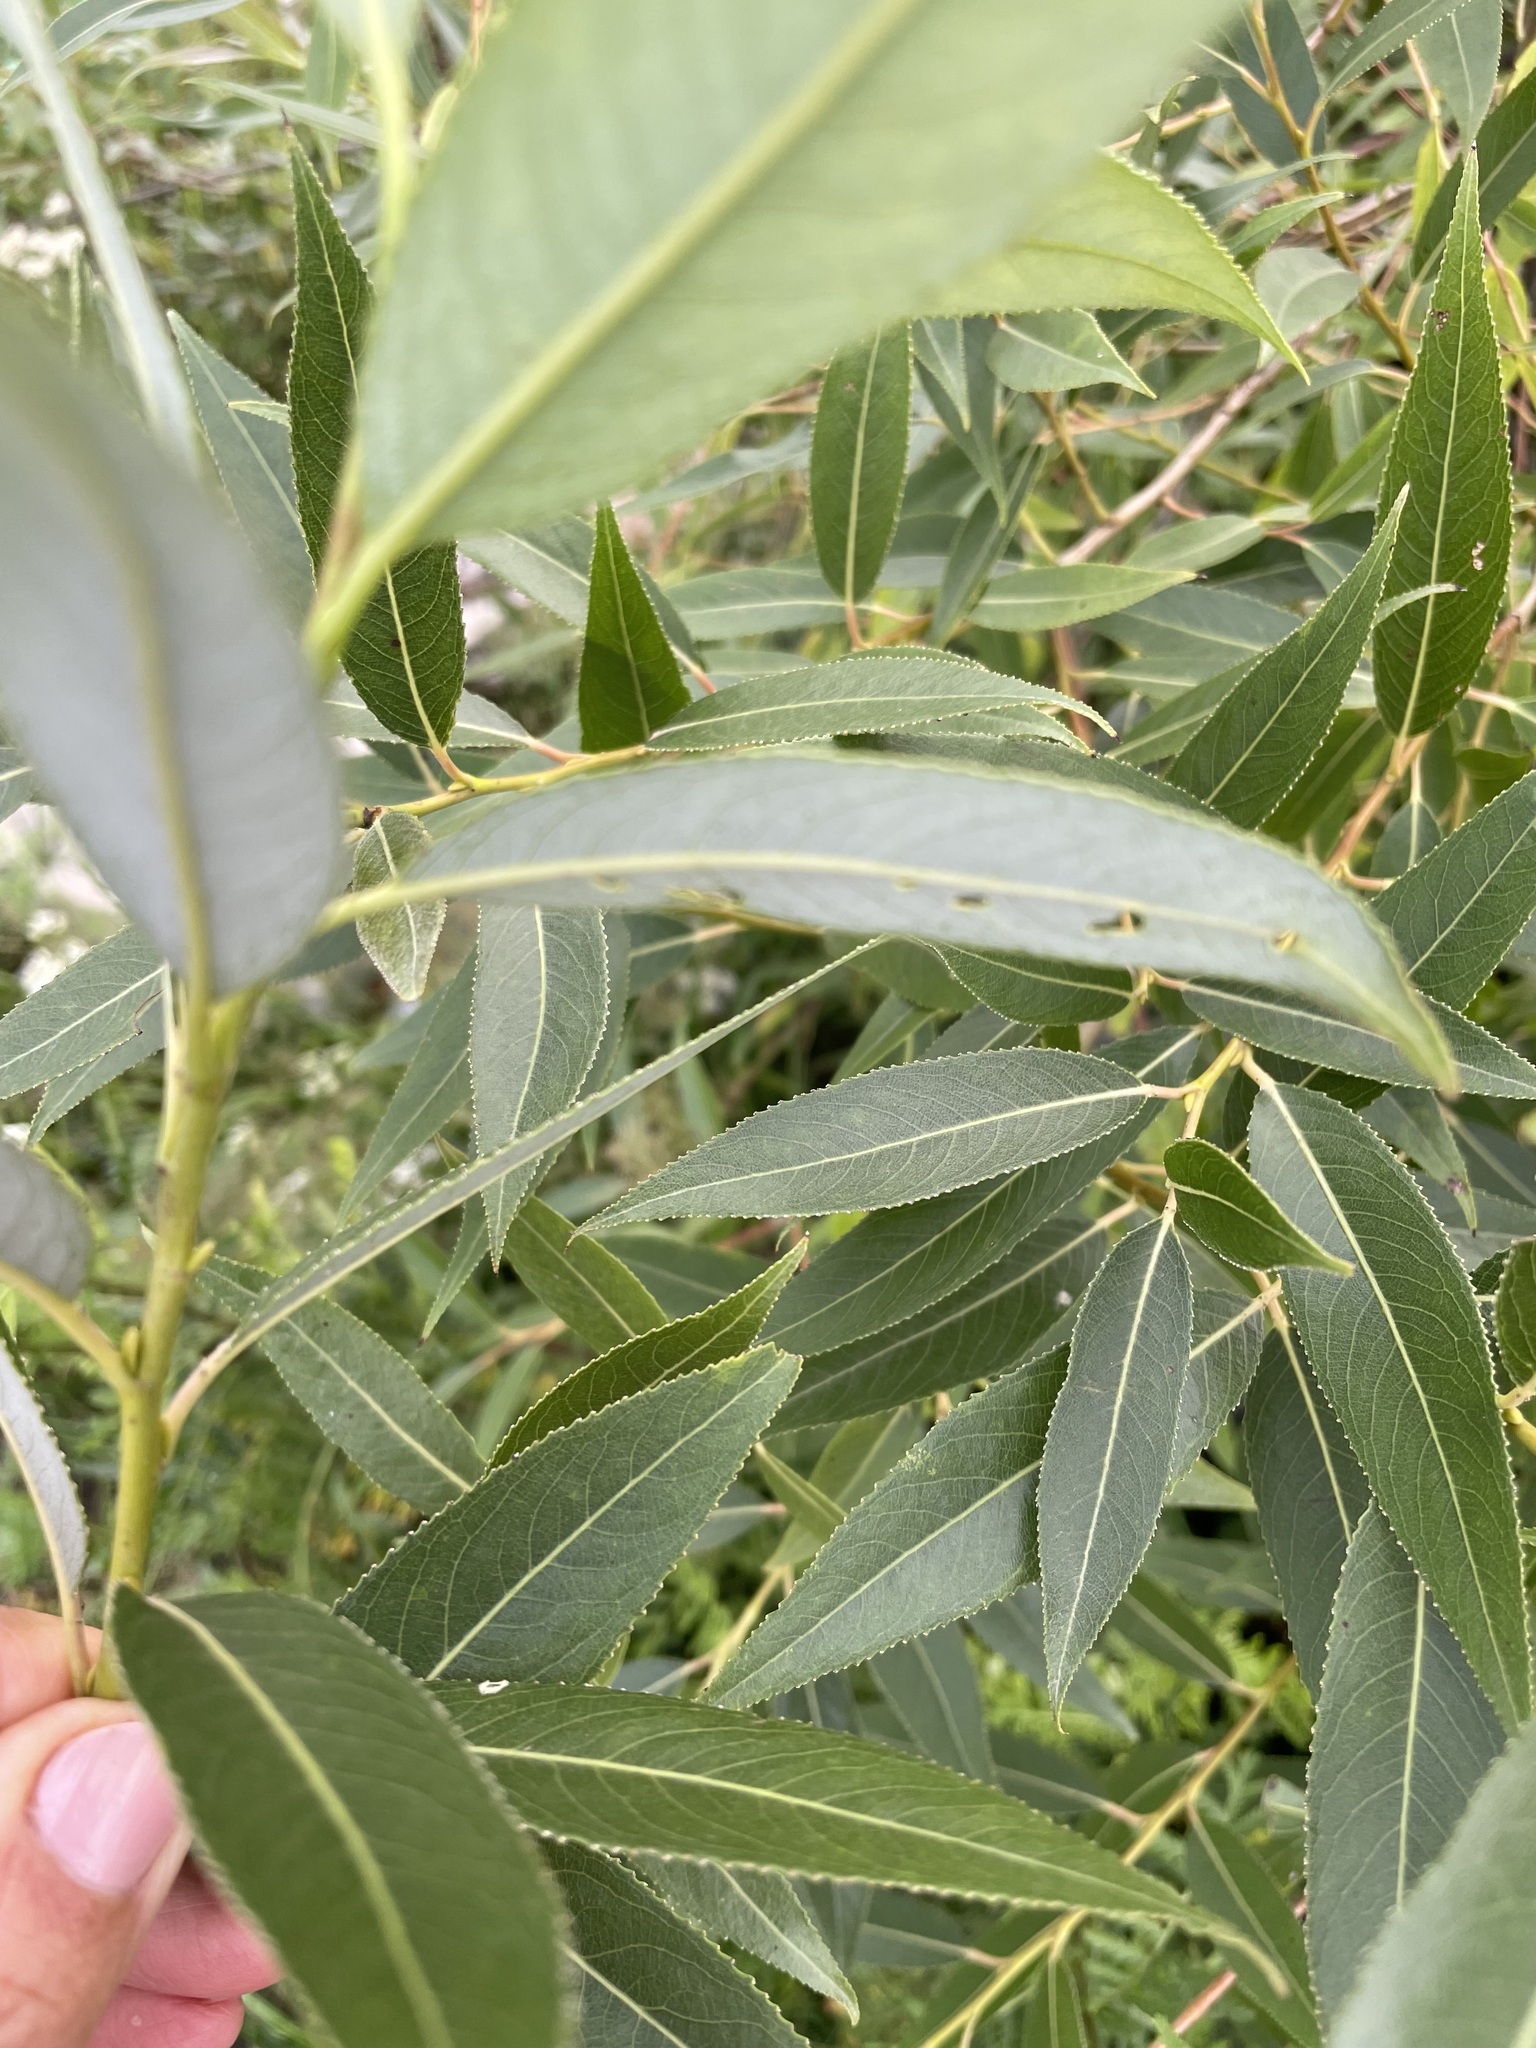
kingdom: Plantae
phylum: Tracheophyta
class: Magnoliopsida
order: Malpighiales
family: Salicaceae
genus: Salix
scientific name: Salix triandra
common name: Almond willow
